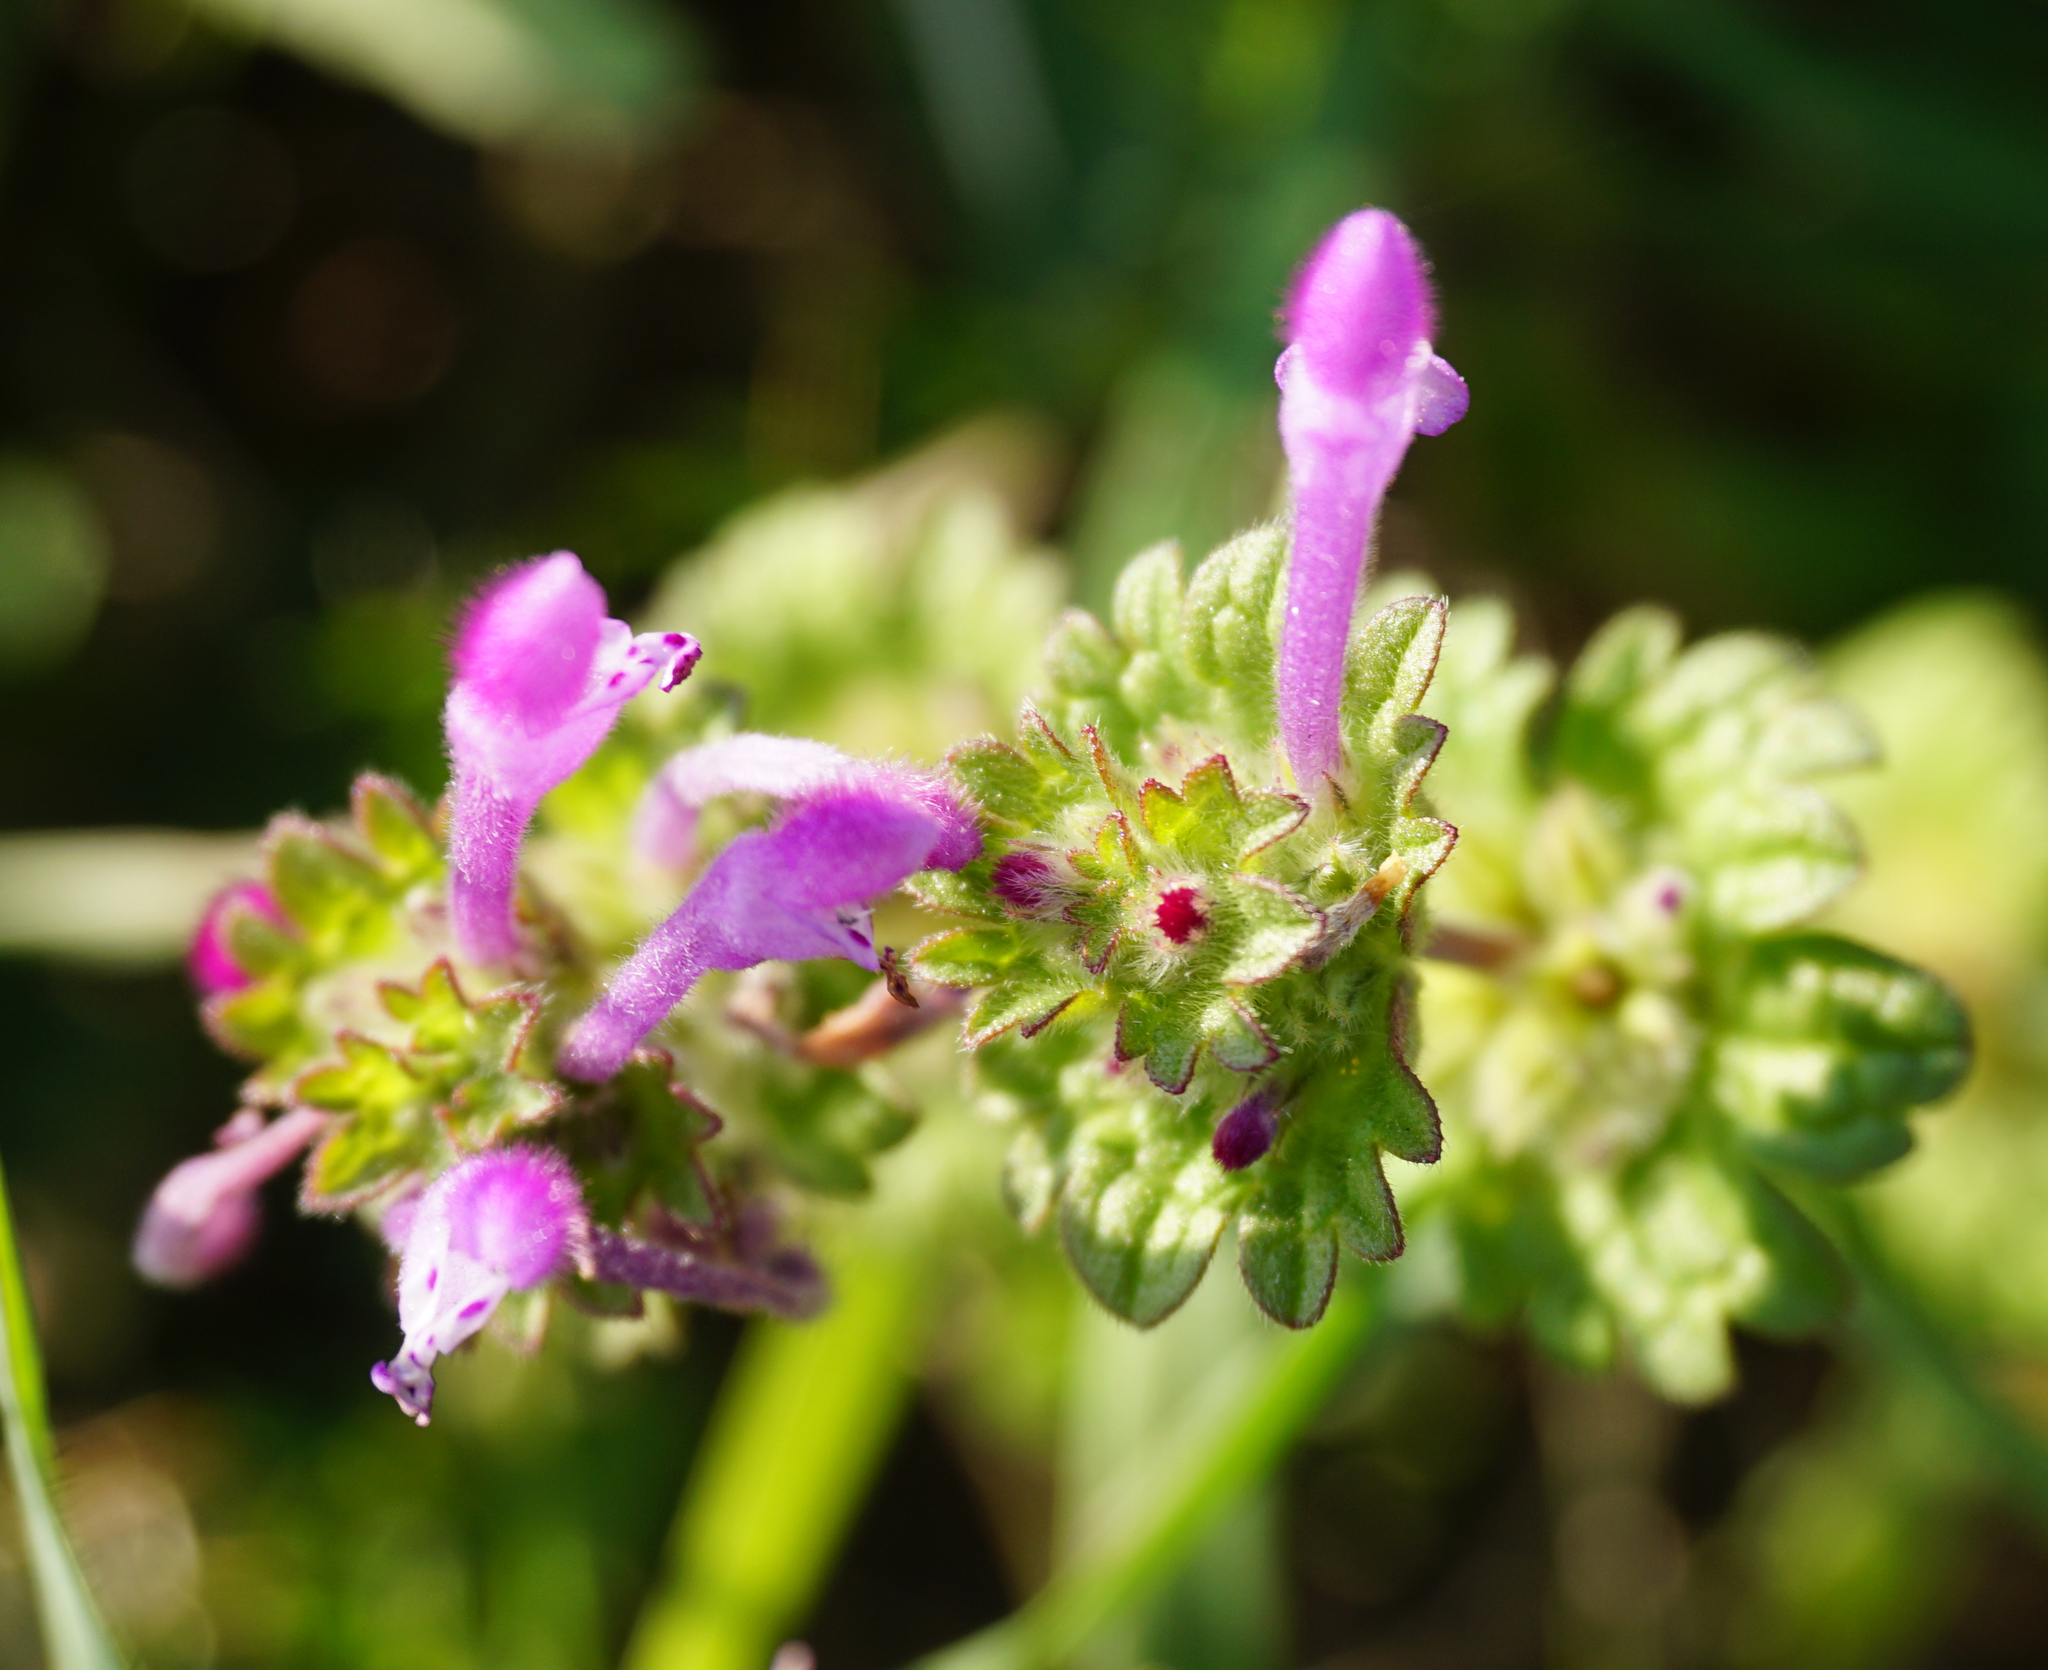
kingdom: Plantae
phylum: Tracheophyta
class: Magnoliopsida
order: Lamiales
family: Lamiaceae
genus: Lamium
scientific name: Lamium amplexicaule
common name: Henbit dead-nettle
